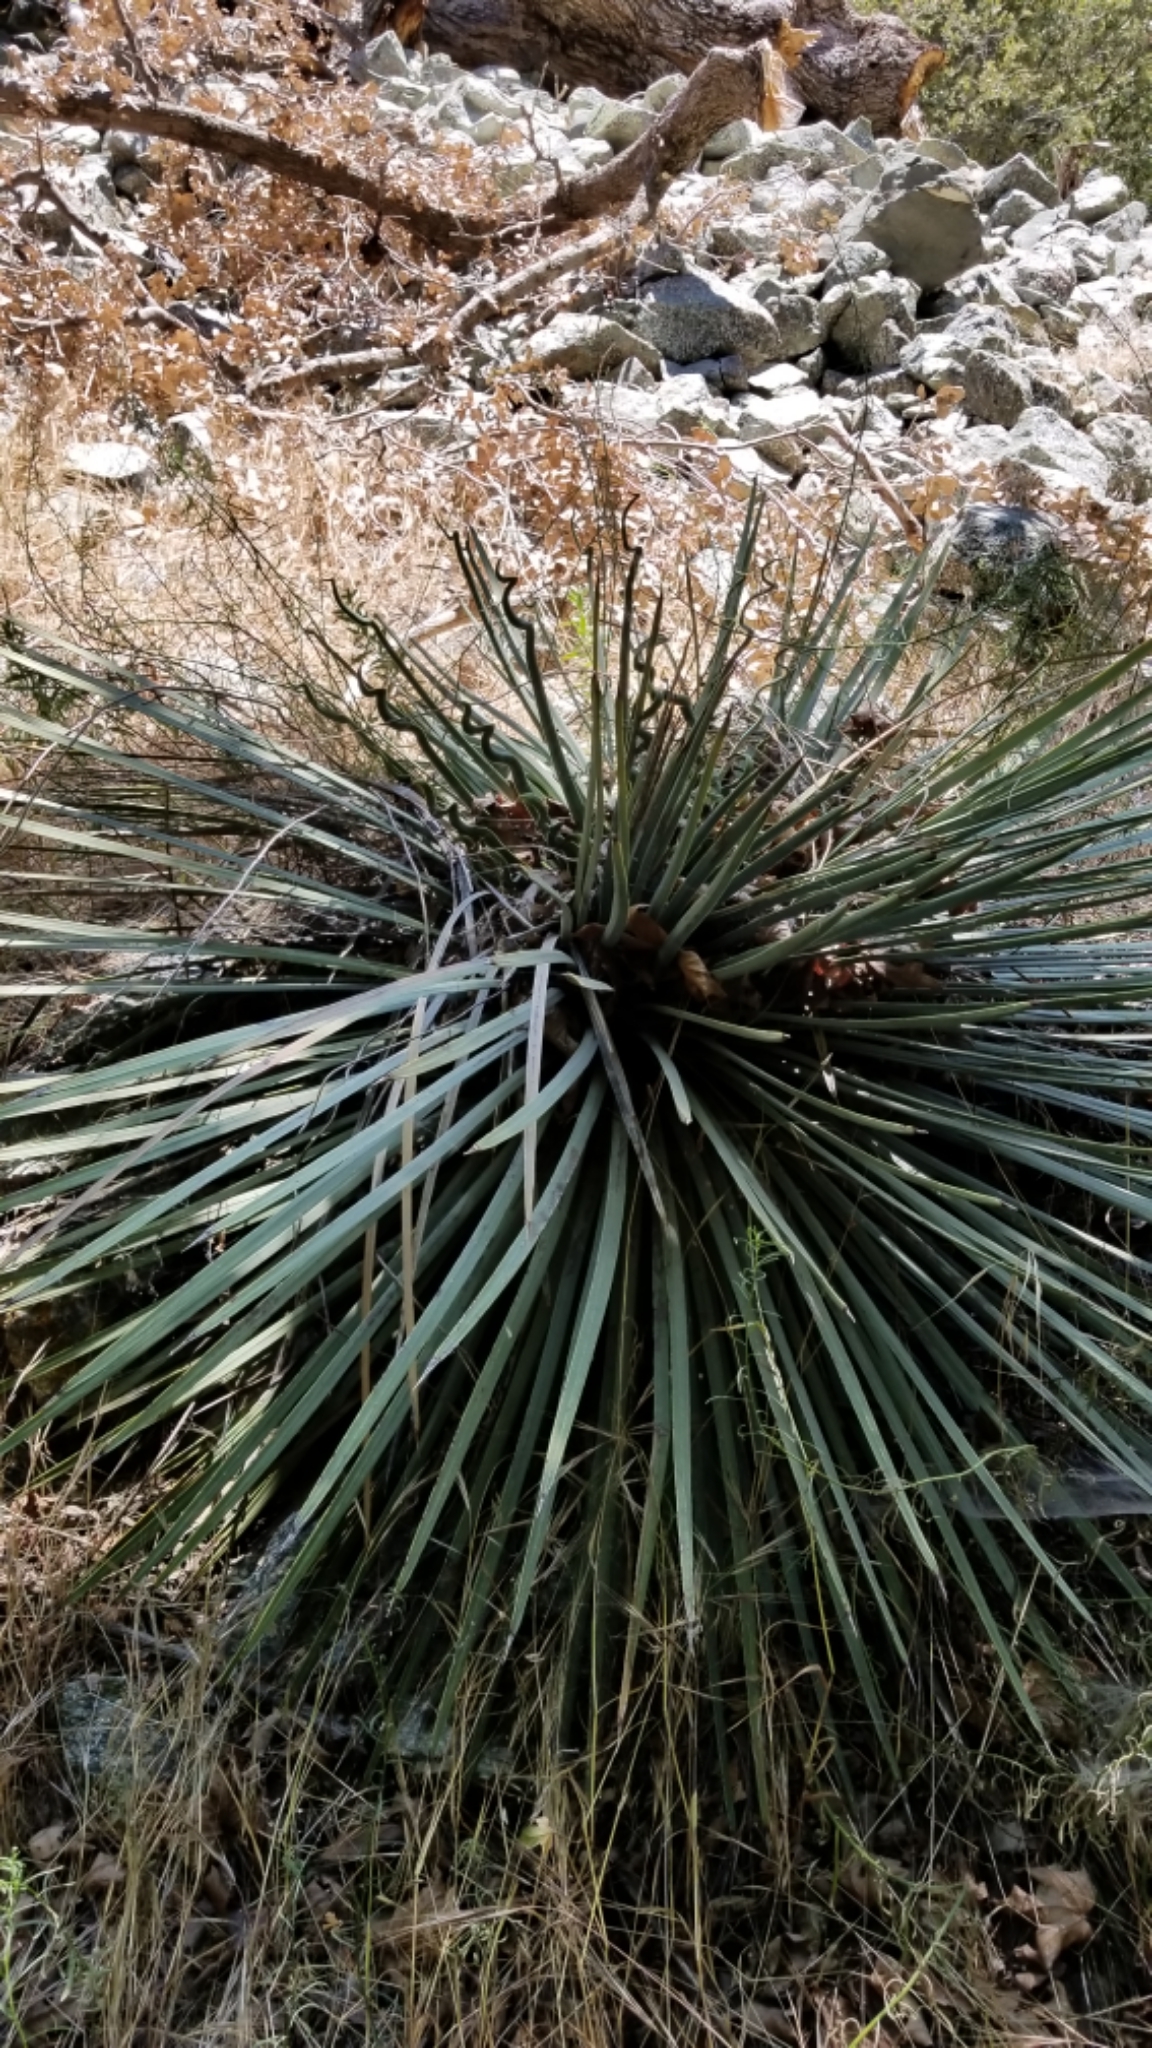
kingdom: Plantae
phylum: Tracheophyta
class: Liliopsida
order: Asparagales
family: Asparagaceae
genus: Hesperoyucca
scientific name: Hesperoyucca whipplei
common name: Our lord's-candle
